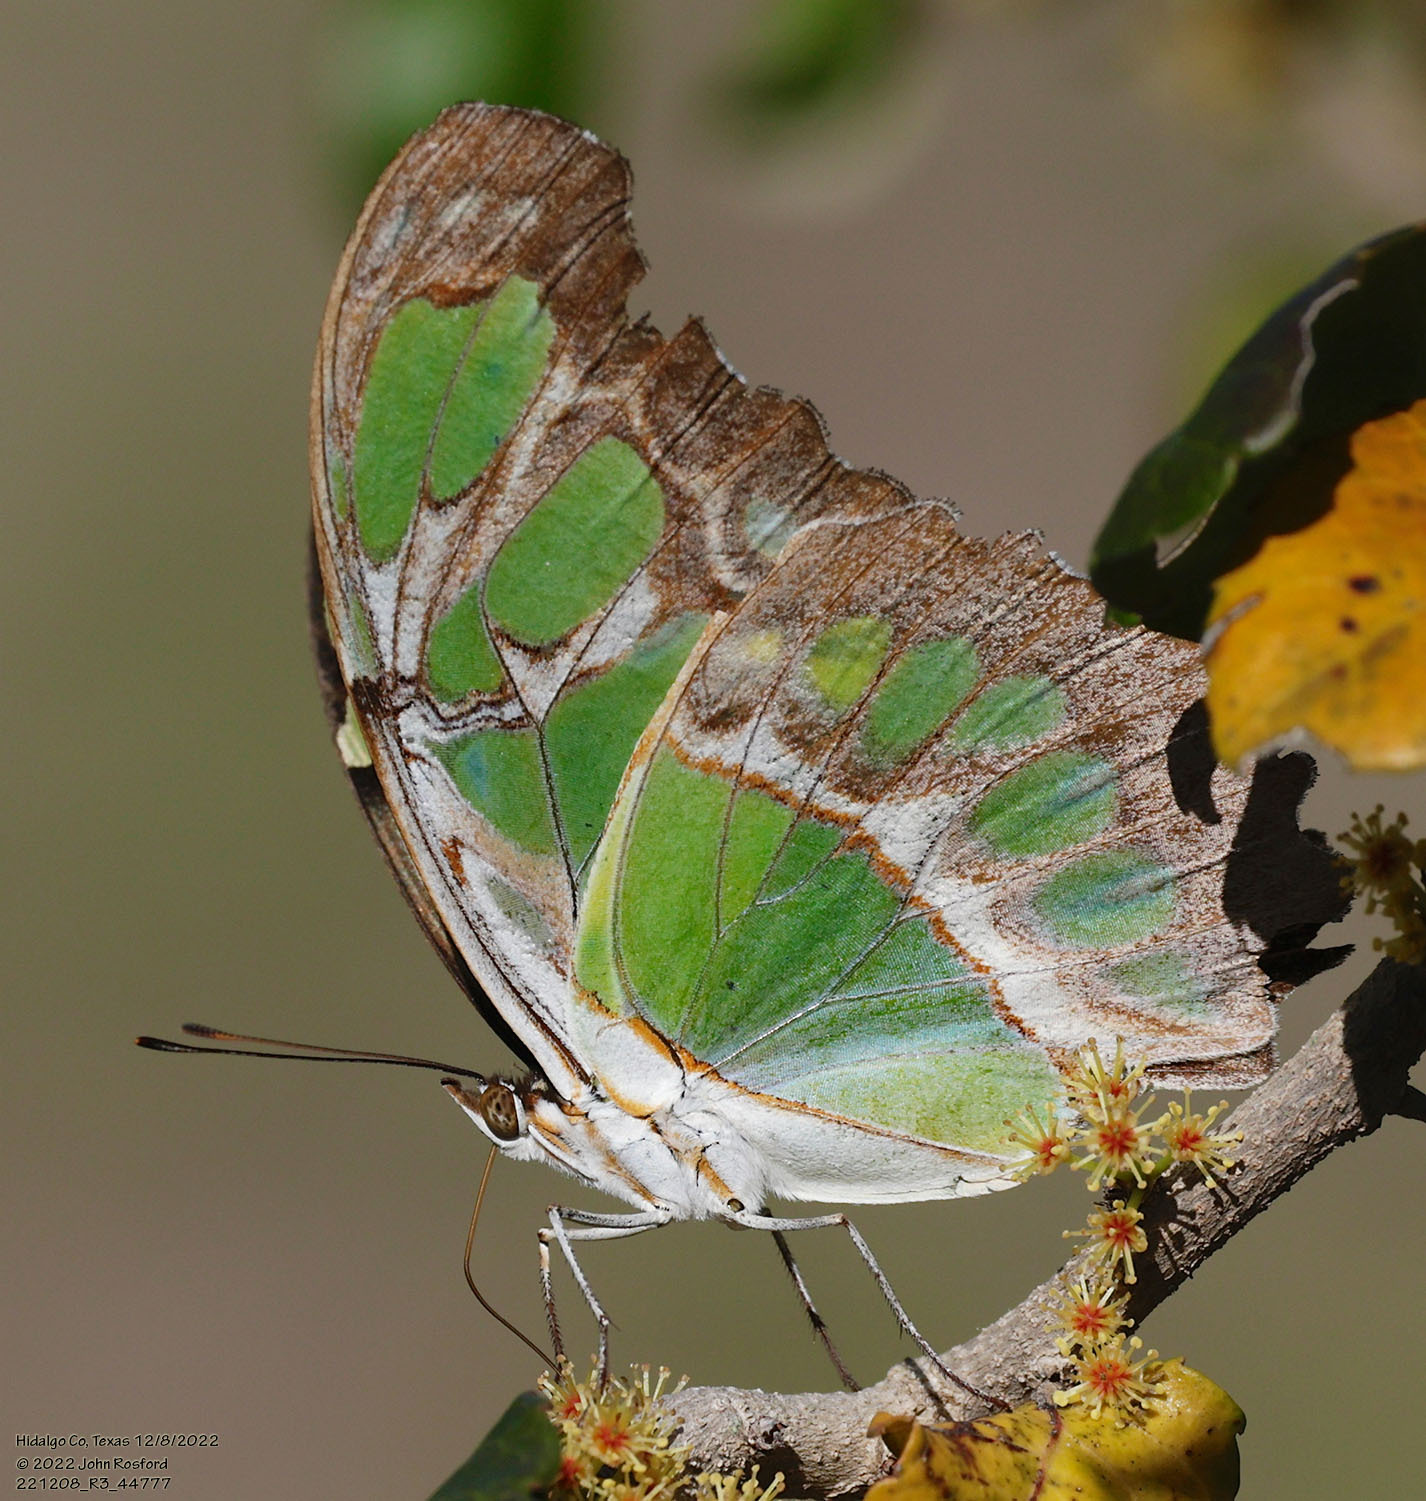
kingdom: Animalia
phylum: Arthropoda
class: Insecta
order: Lepidoptera
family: Nymphalidae
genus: Siproeta
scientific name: Siproeta stelenes
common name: Malachite
